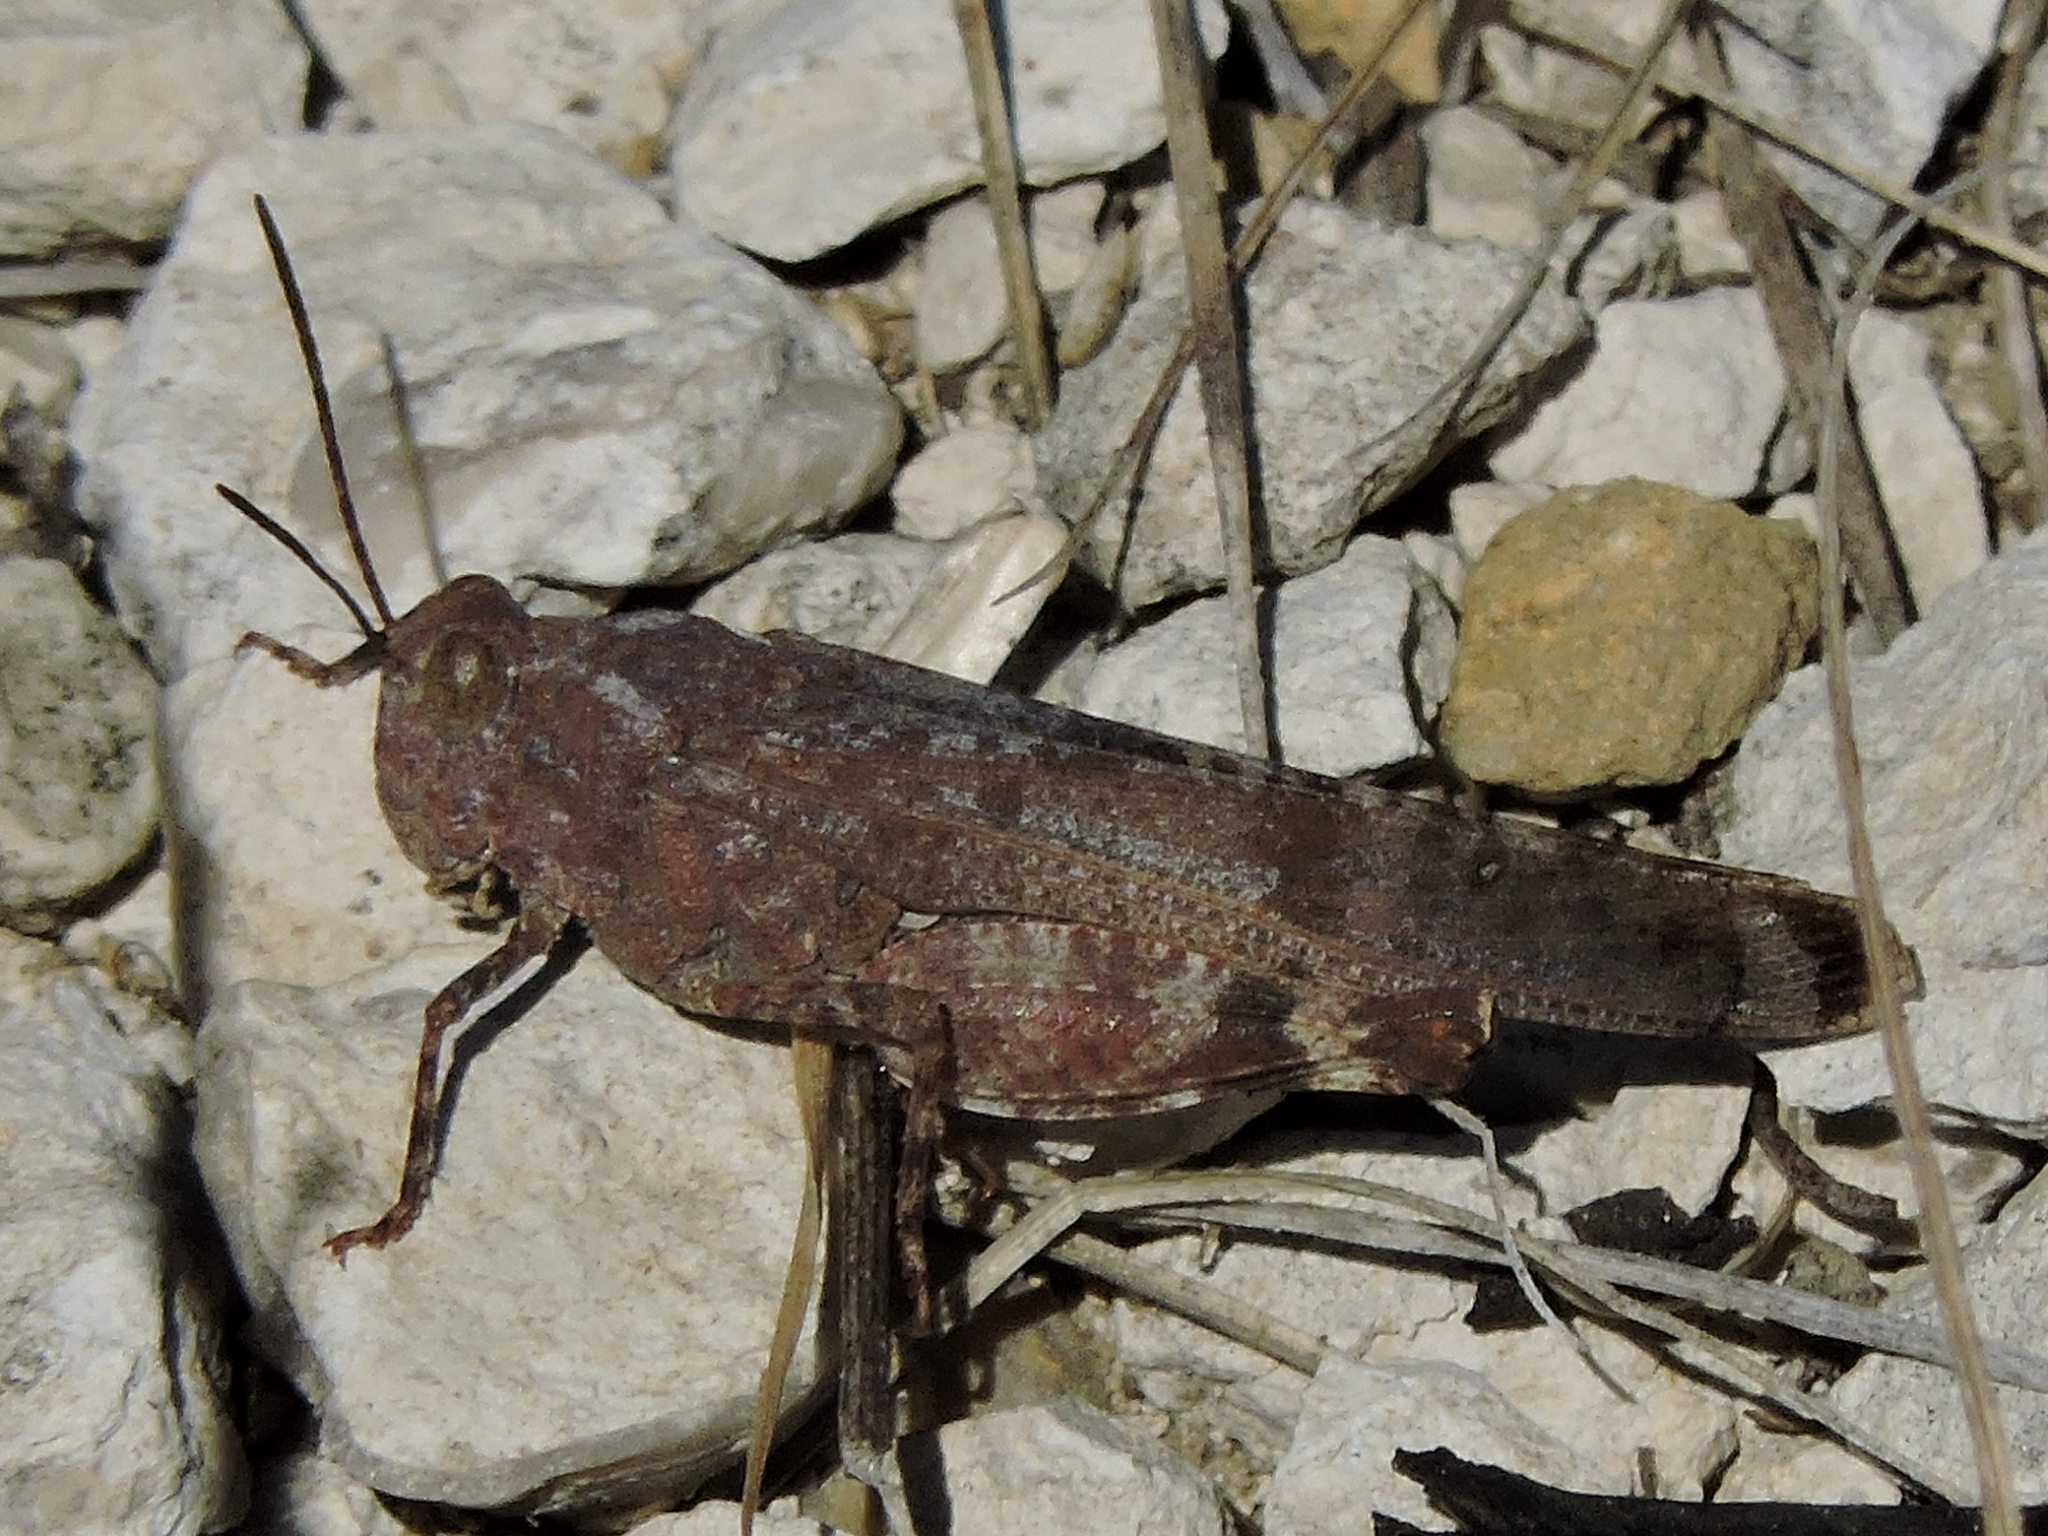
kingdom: Animalia
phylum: Arthropoda
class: Insecta
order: Orthoptera
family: Acrididae
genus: Lactista
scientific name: Lactista azteca
